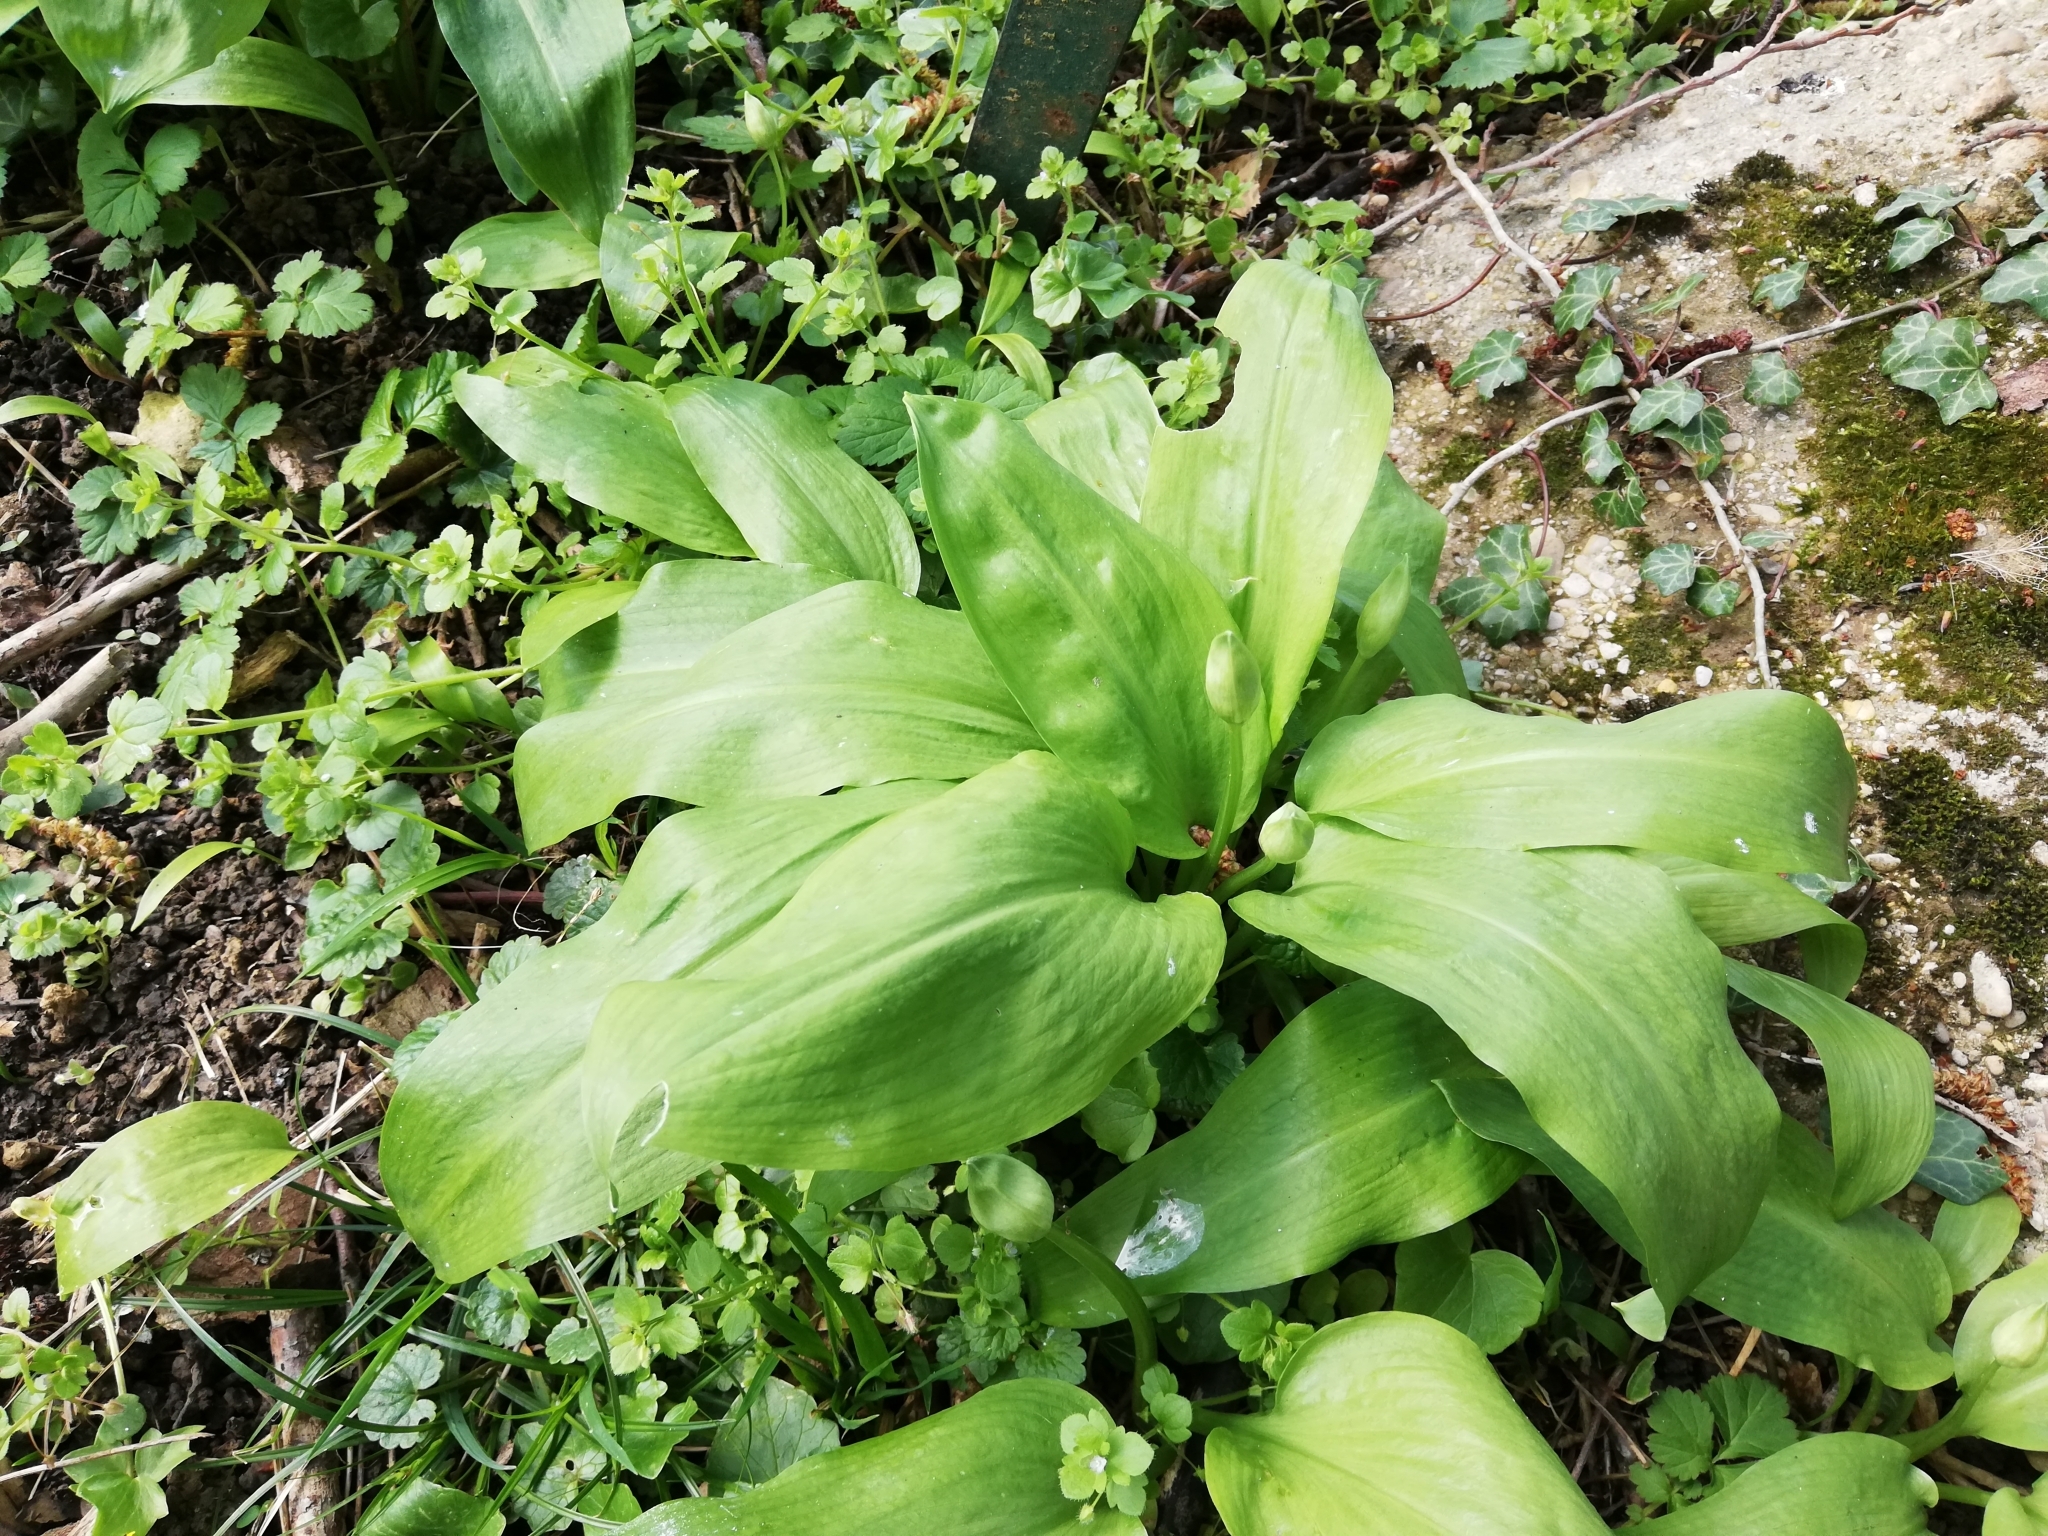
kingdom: Plantae
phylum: Tracheophyta
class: Liliopsida
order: Asparagales
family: Amaryllidaceae
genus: Allium
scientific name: Allium ursinum
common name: Ramsons
